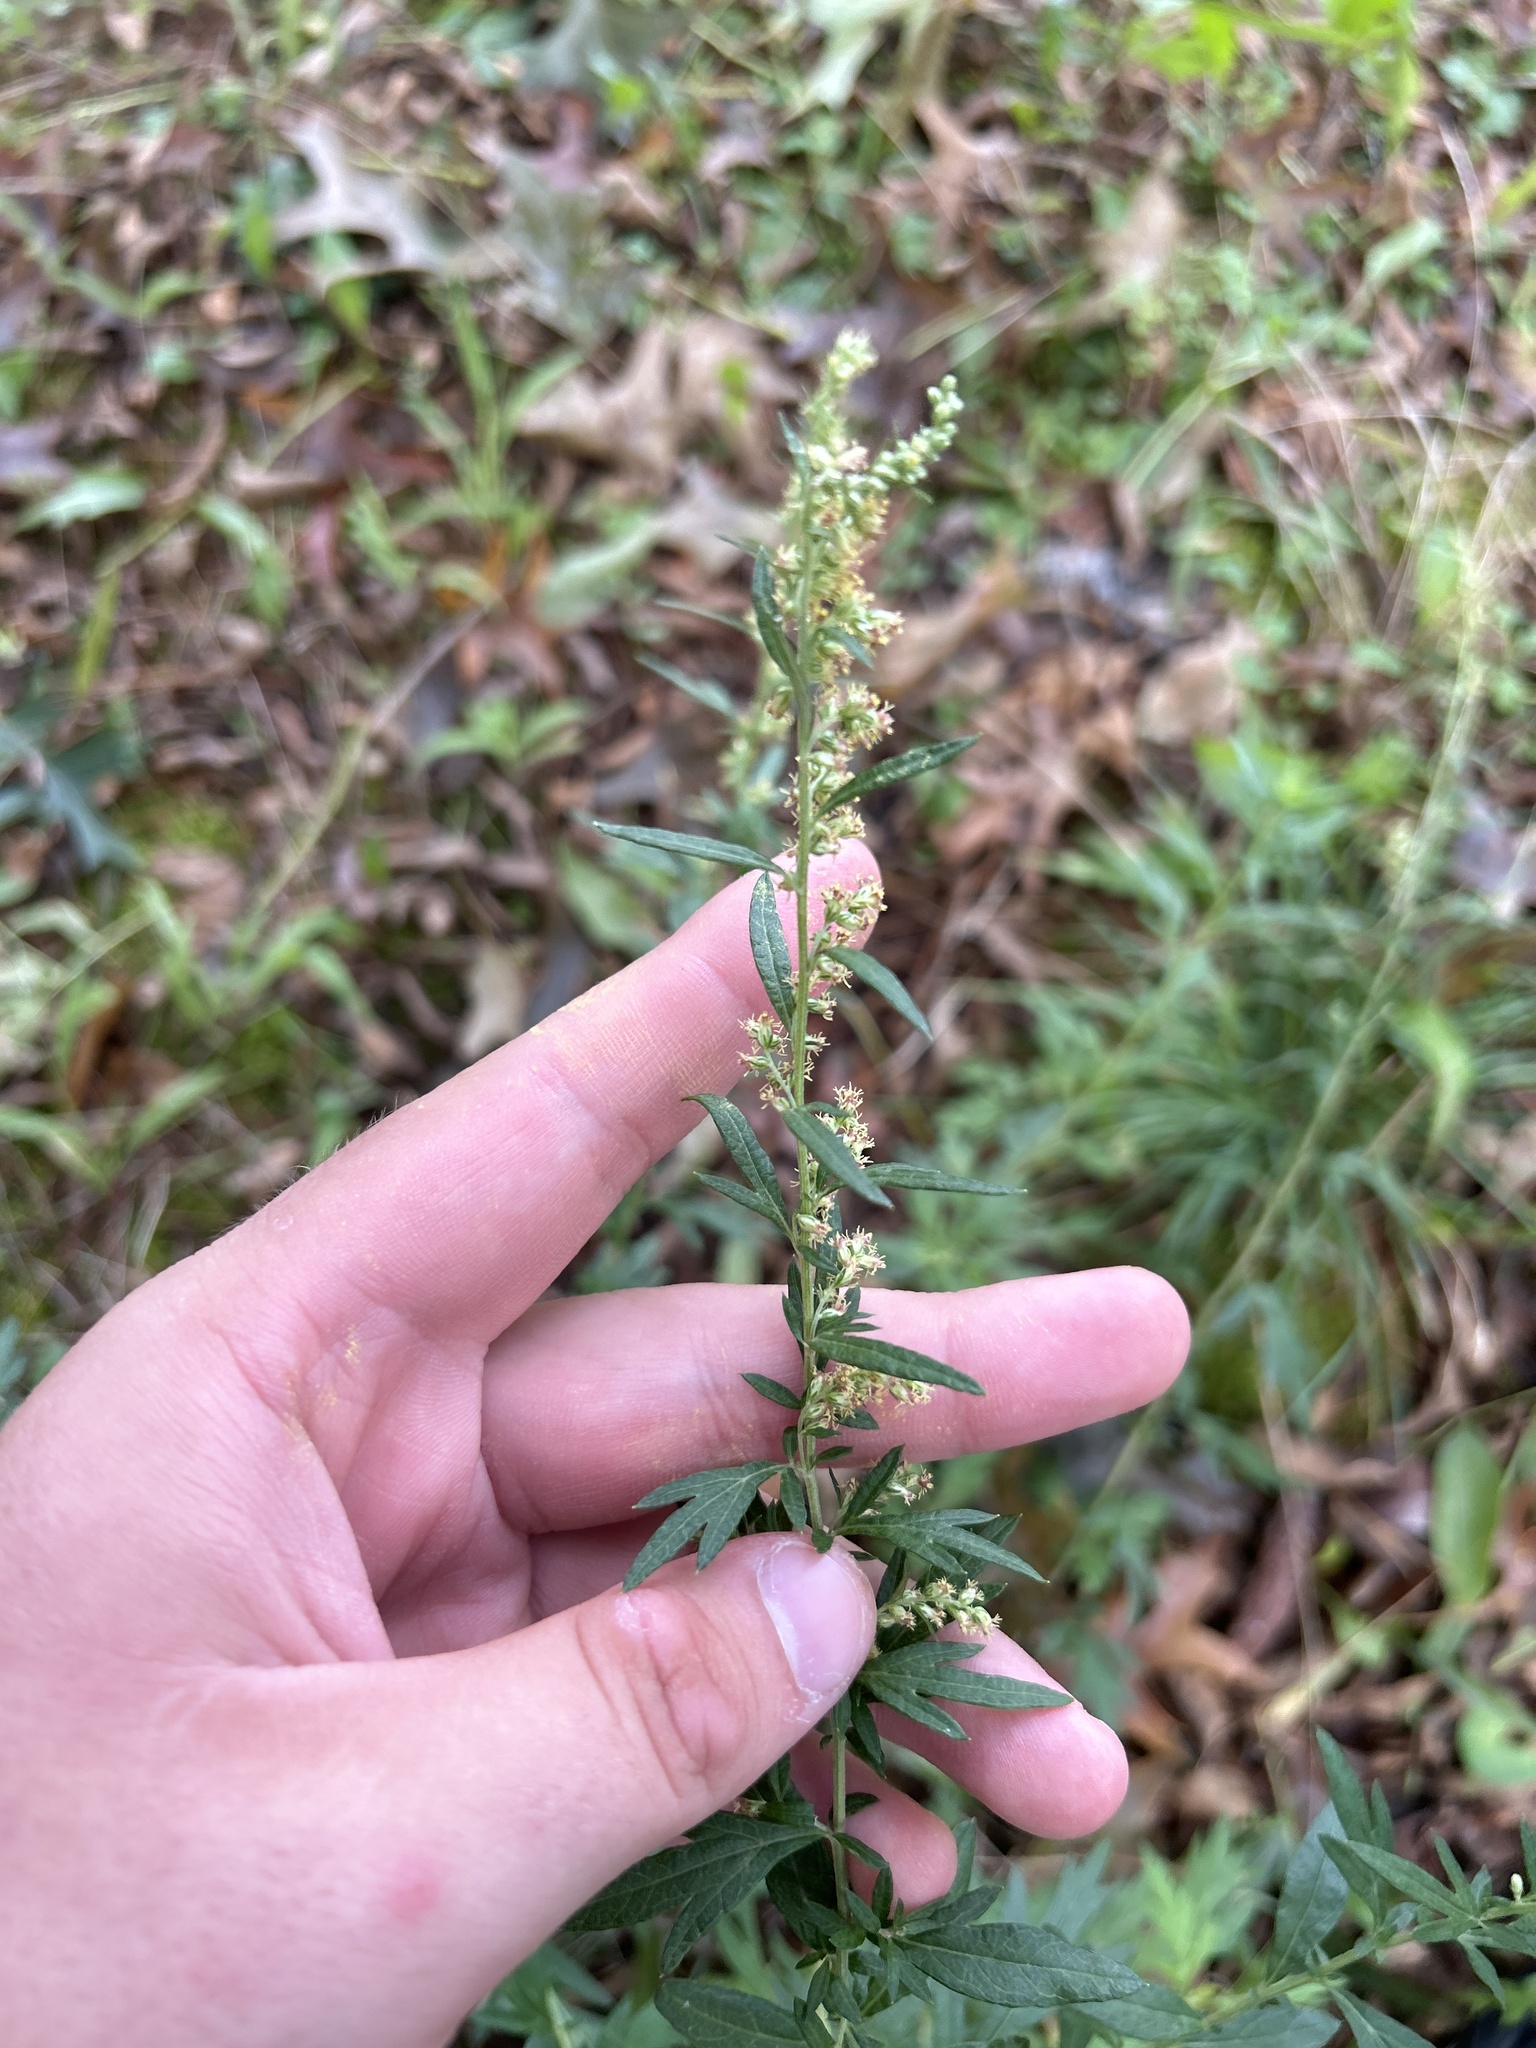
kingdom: Plantae
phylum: Tracheophyta
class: Magnoliopsida
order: Asterales
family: Asteraceae
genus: Artemisia
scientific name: Artemisia vulgaris
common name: Mugwort
